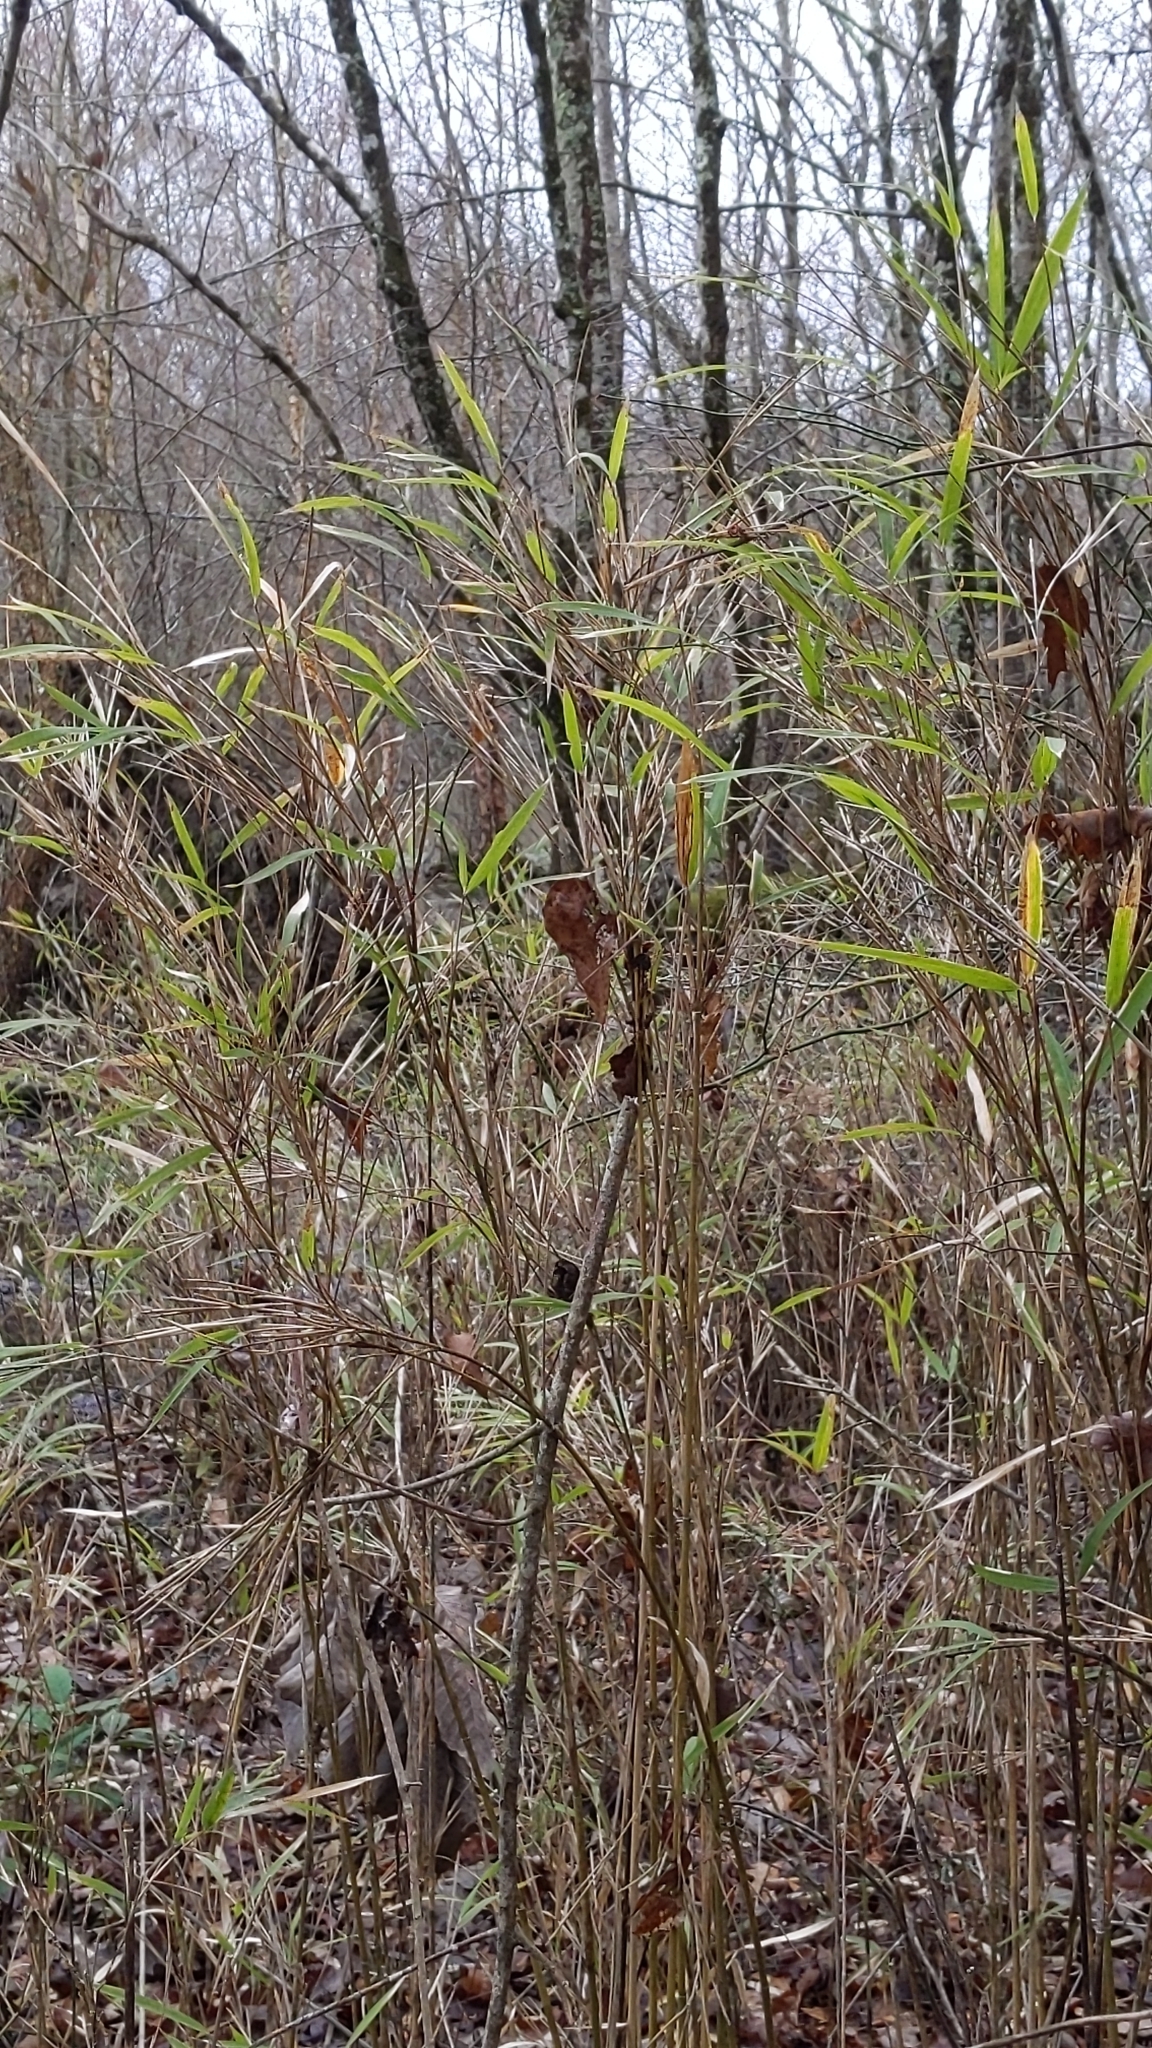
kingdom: Plantae
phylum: Tracheophyta
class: Liliopsida
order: Poales
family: Poaceae
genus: Arundinaria
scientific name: Arundinaria tecta
